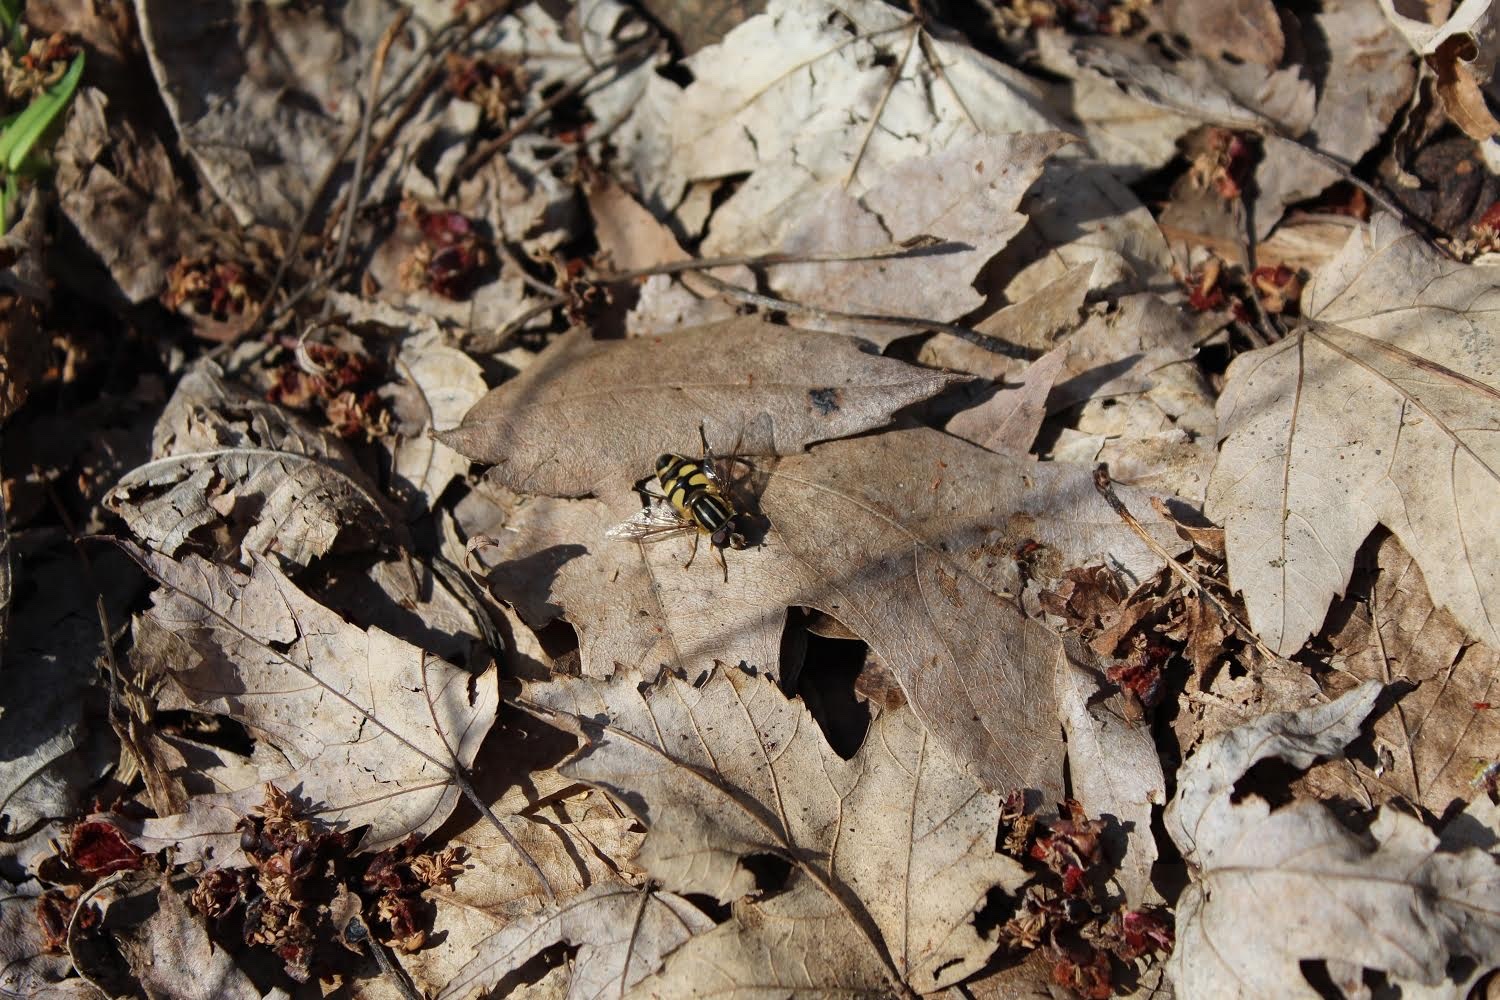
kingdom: Animalia
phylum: Arthropoda
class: Insecta
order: Diptera
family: Syrphidae
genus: Helophilus
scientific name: Helophilus fasciatus
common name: Narrow-headed marsh fly
